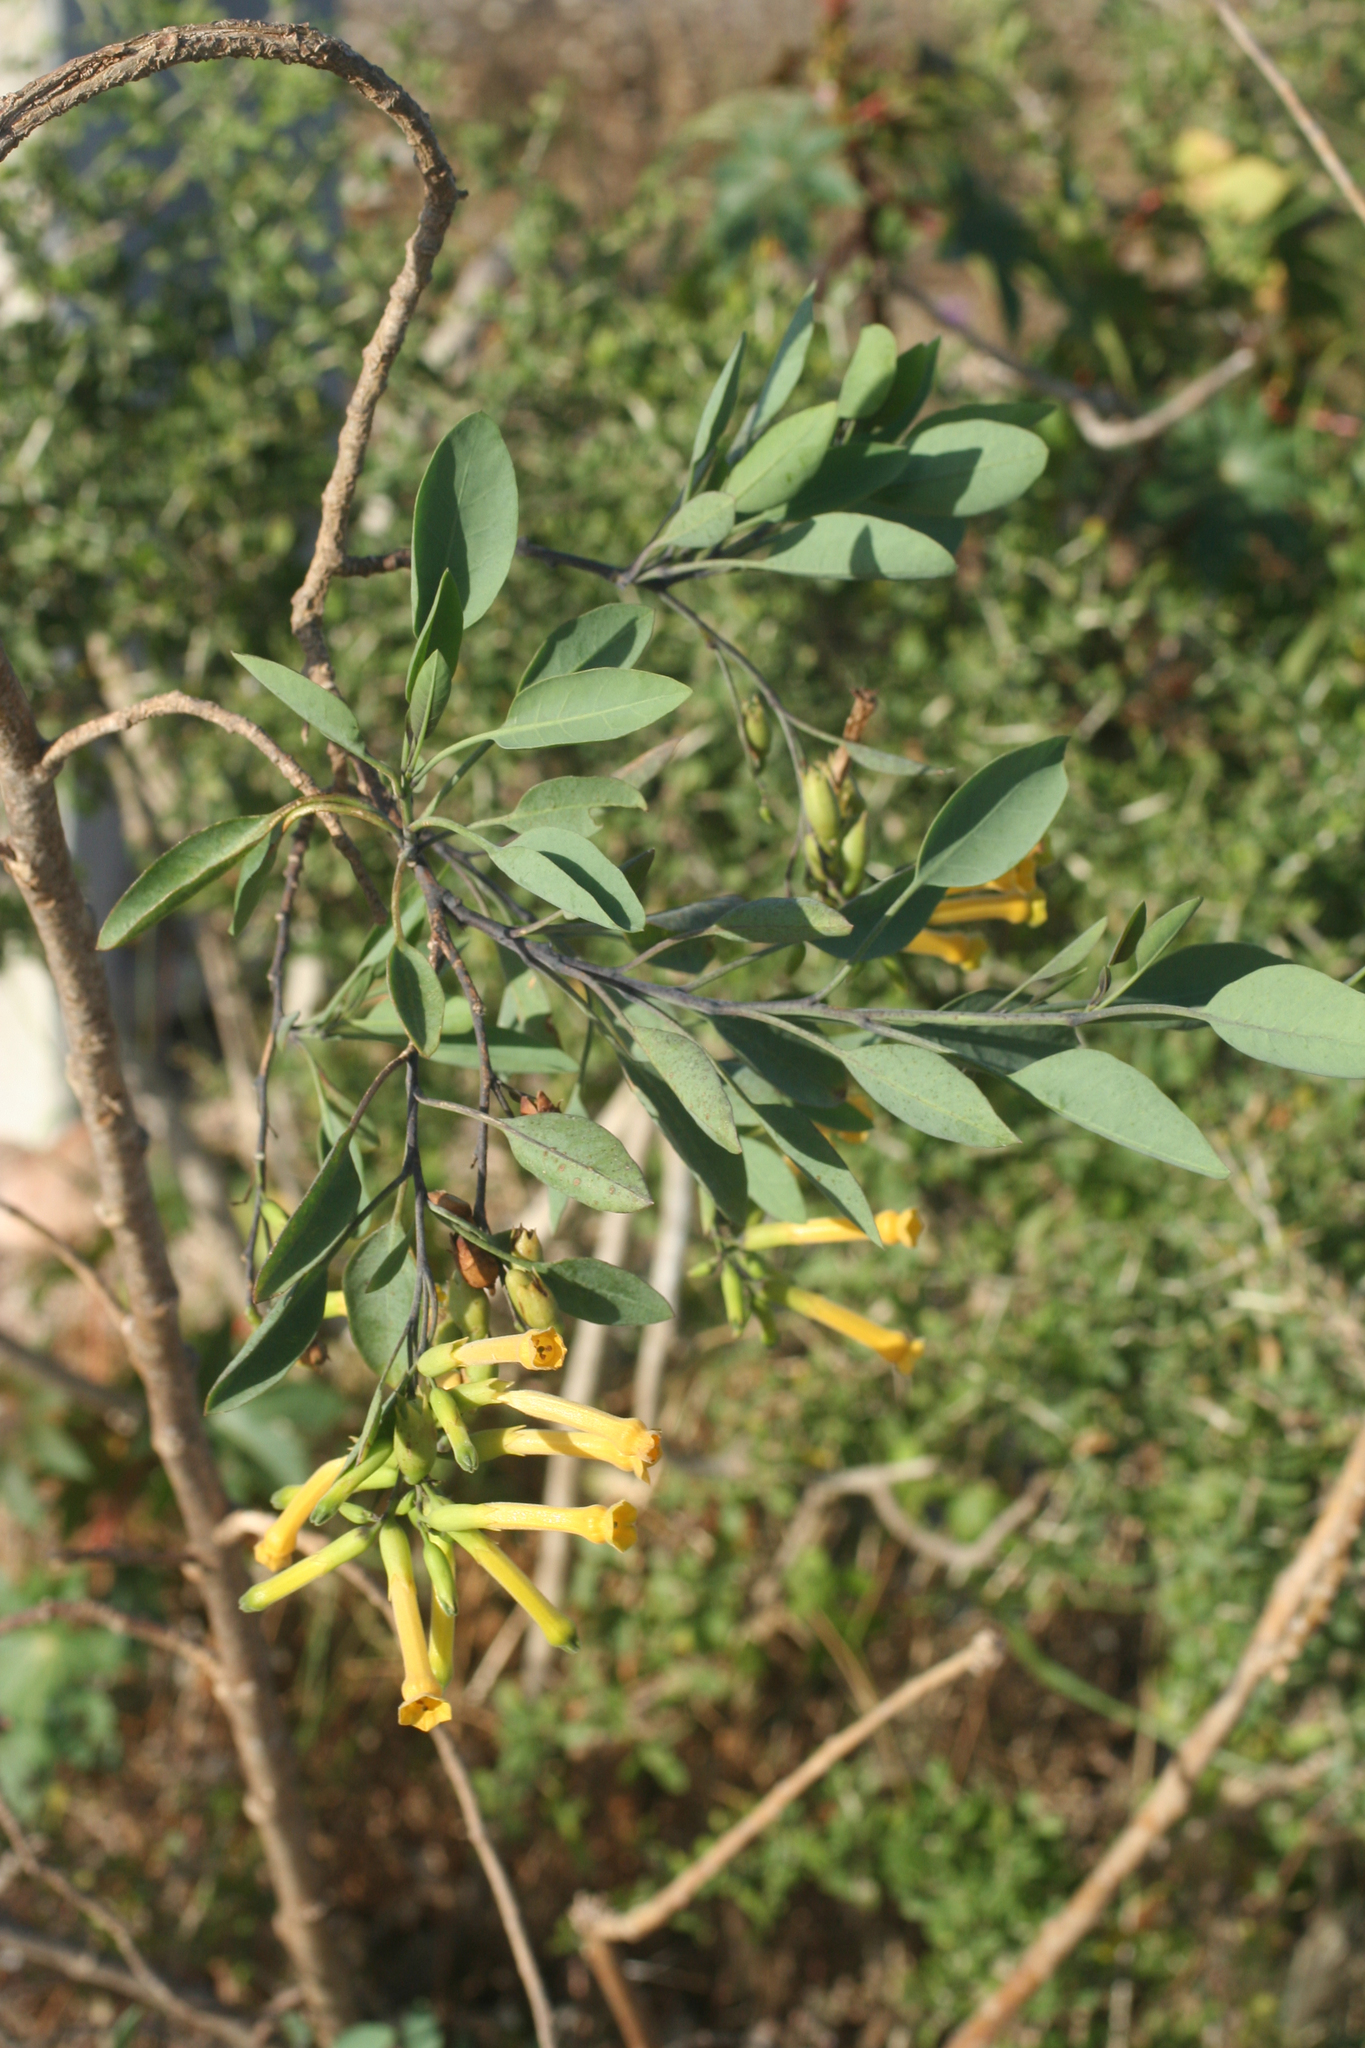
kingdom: Plantae
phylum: Tracheophyta
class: Magnoliopsida
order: Solanales
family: Solanaceae
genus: Nicotiana
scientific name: Nicotiana glauca
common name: Tree tobacco
